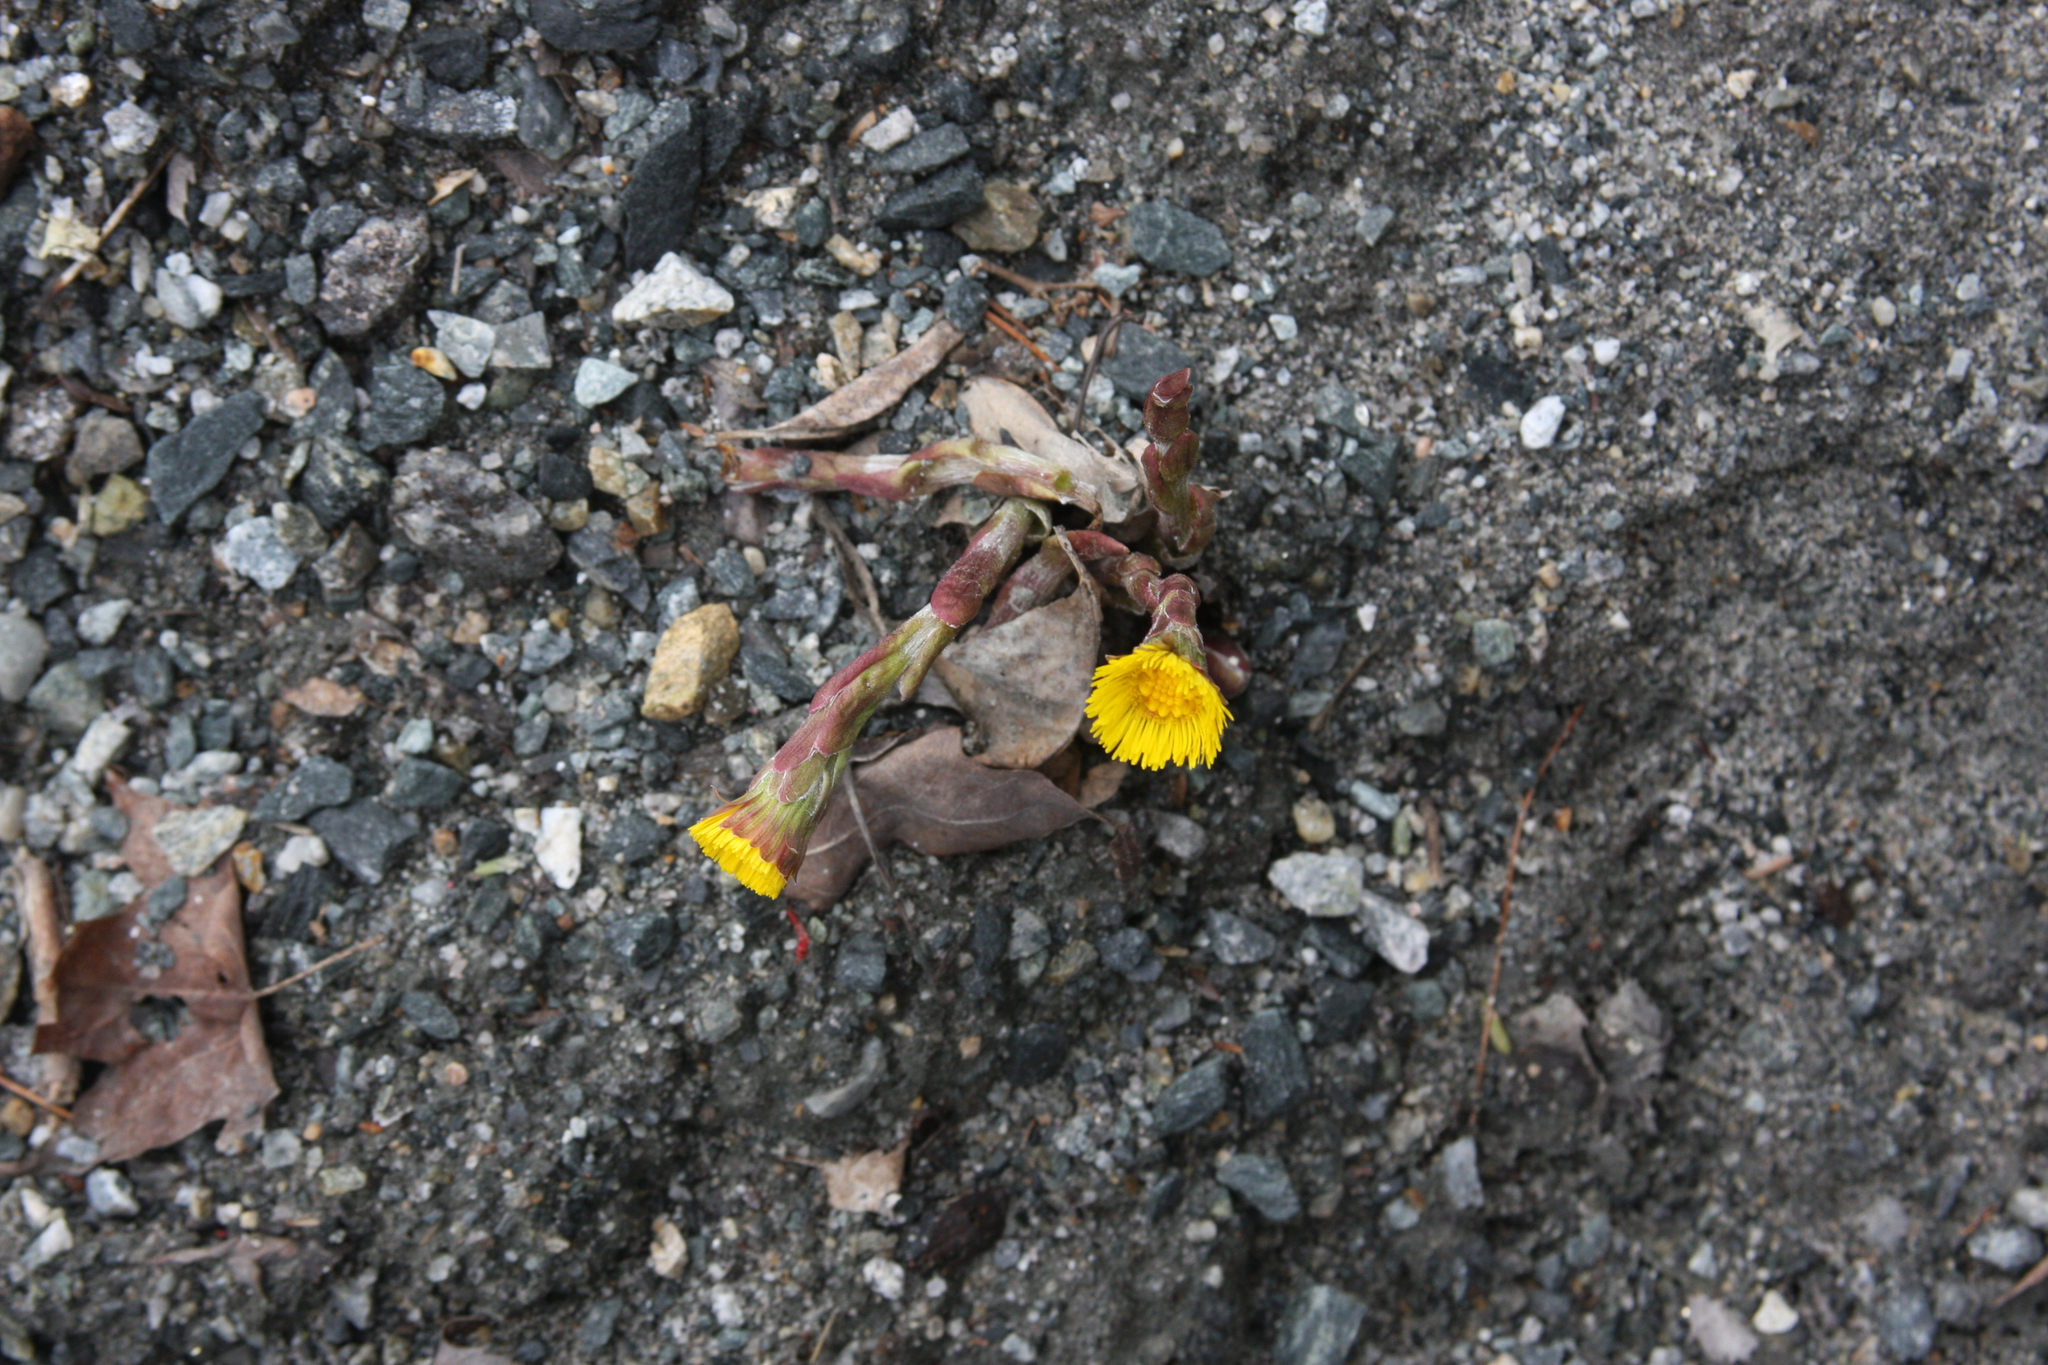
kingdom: Plantae
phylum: Tracheophyta
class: Magnoliopsida
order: Asterales
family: Asteraceae
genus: Tussilago
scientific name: Tussilago farfara
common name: Coltsfoot
